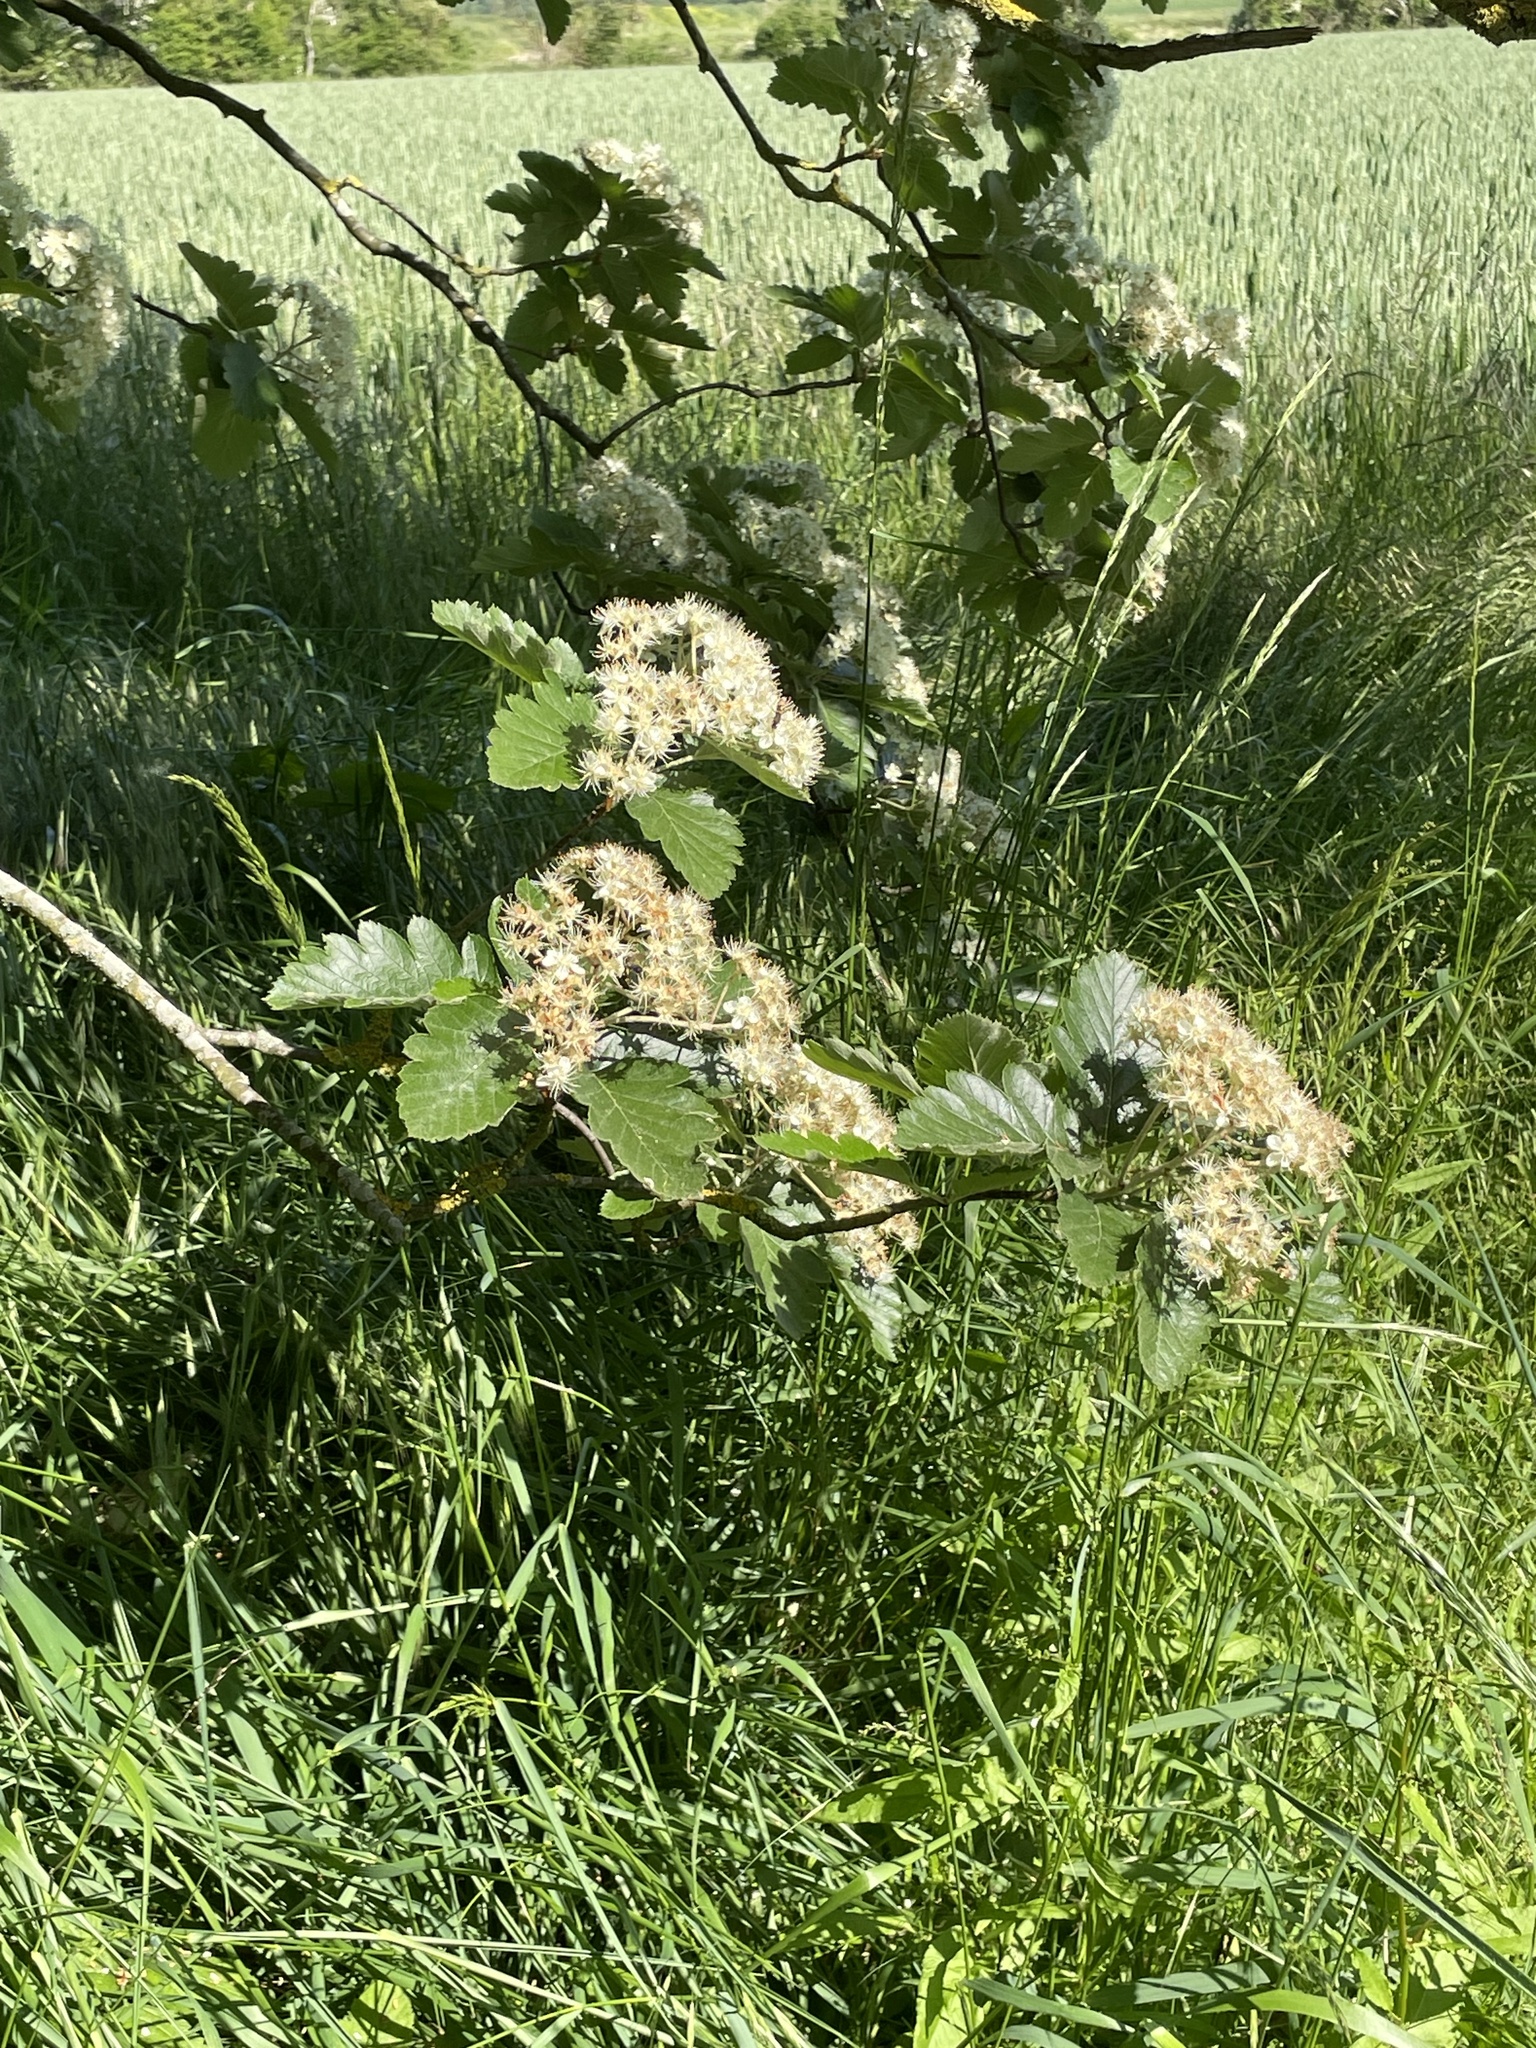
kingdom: Plantae
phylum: Tracheophyta
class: Magnoliopsida
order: Rosales
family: Rosaceae
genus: Scandosorbus
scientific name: Scandosorbus intermedia
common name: Swedish whitebeam
